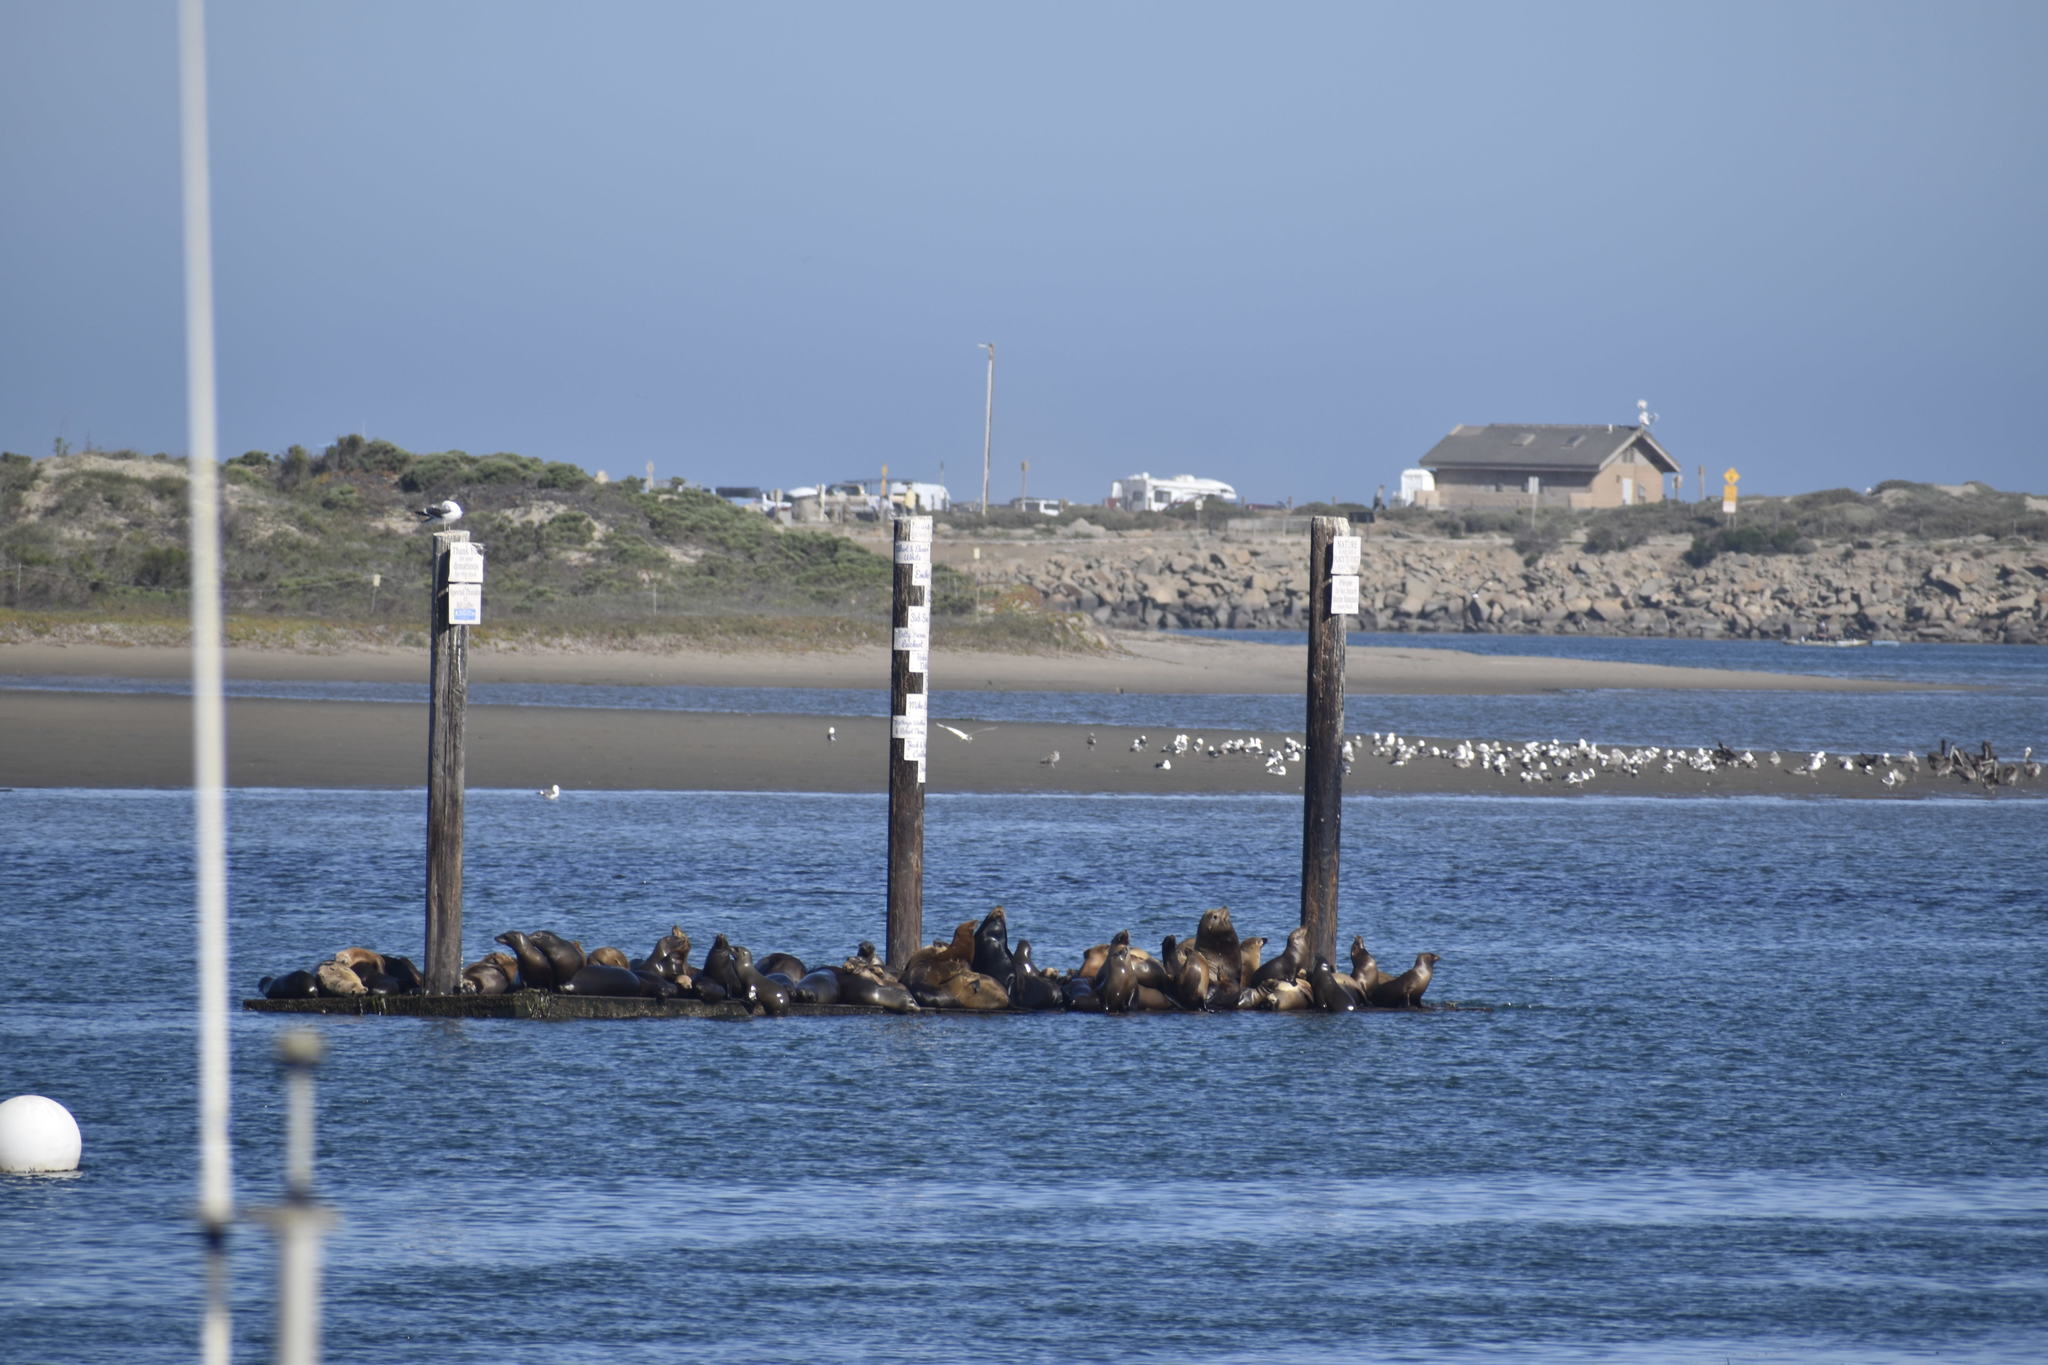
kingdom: Animalia
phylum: Chordata
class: Mammalia
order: Carnivora
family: Otariidae
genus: Zalophus
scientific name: Zalophus californianus
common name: California sea lion
